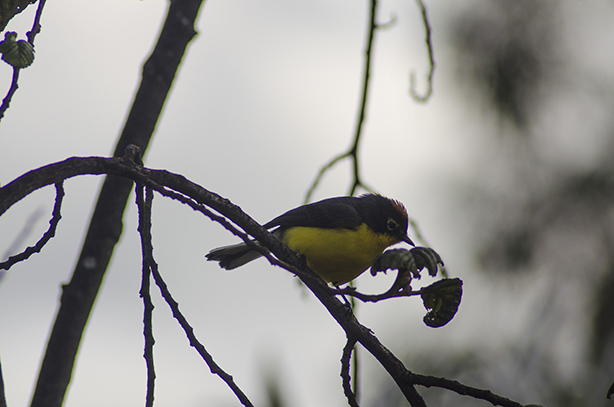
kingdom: Animalia
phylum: Chordata
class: Aves
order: Passeriformes
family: Parulidae
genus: Myioborus
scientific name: Myioborus melanocephalus
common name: Spectacled whitestart
